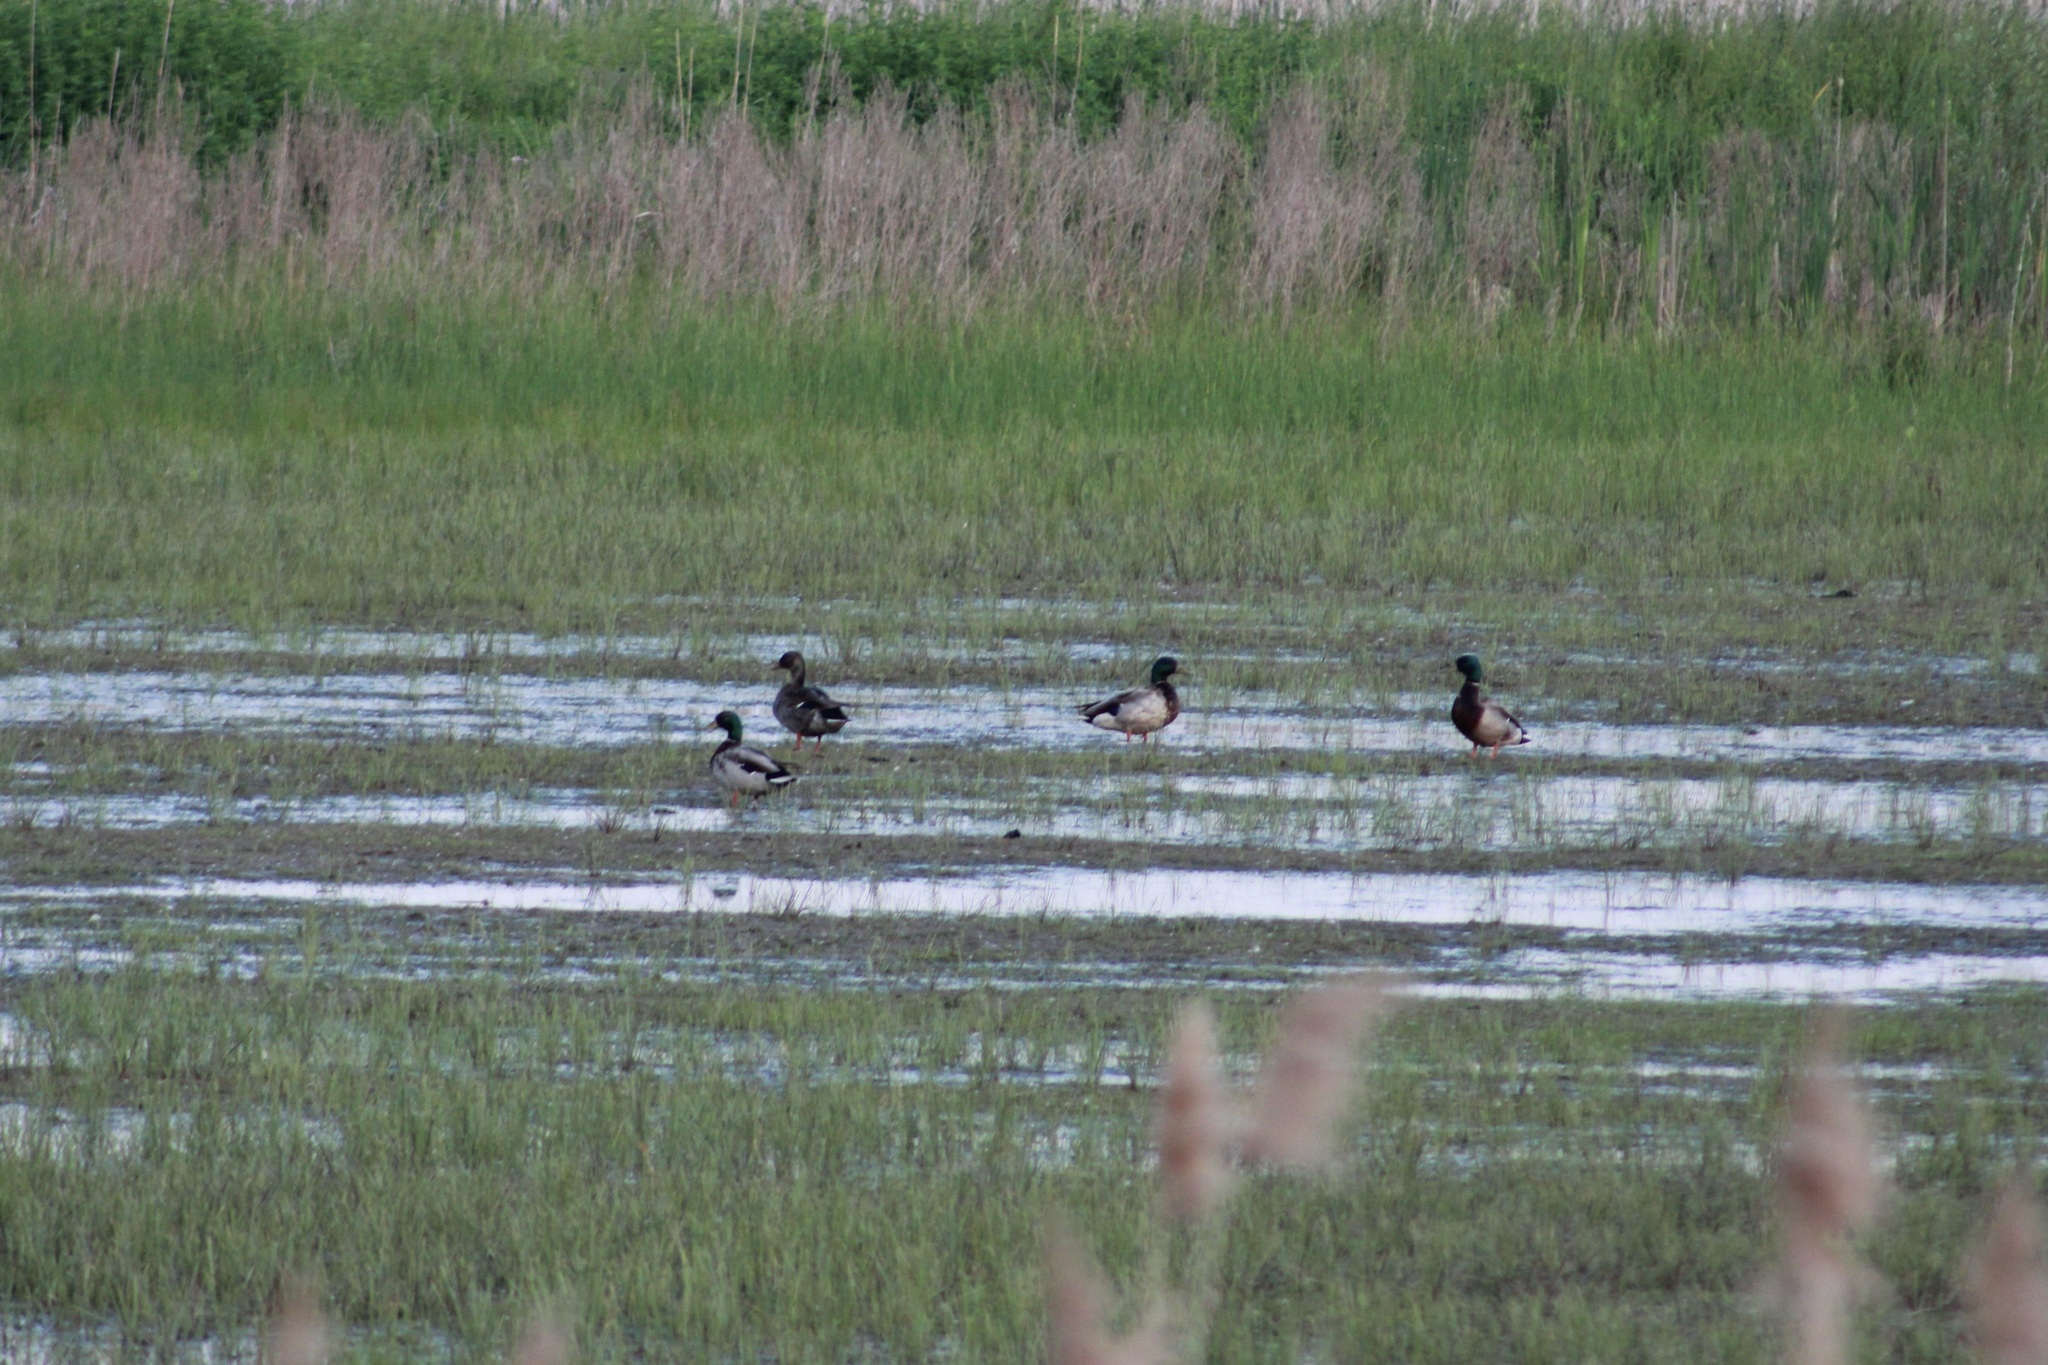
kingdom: Animalia
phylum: Chordata
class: Aves
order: Anseriformes
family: Anatidae
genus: Anas
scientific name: Anas platyrhynchos
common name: Mallard
